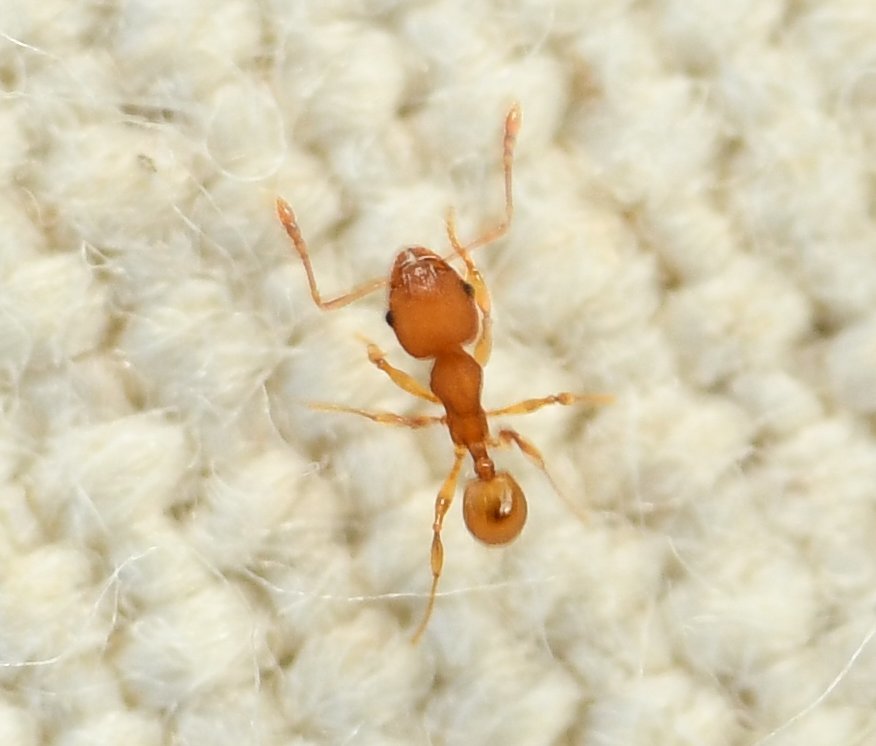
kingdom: Animalia
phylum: Arthropoda
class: Insecta
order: Hymenoptera
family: Formicidae
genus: Pheidole
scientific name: Pheidole navigans
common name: Navigating big-headed ant
